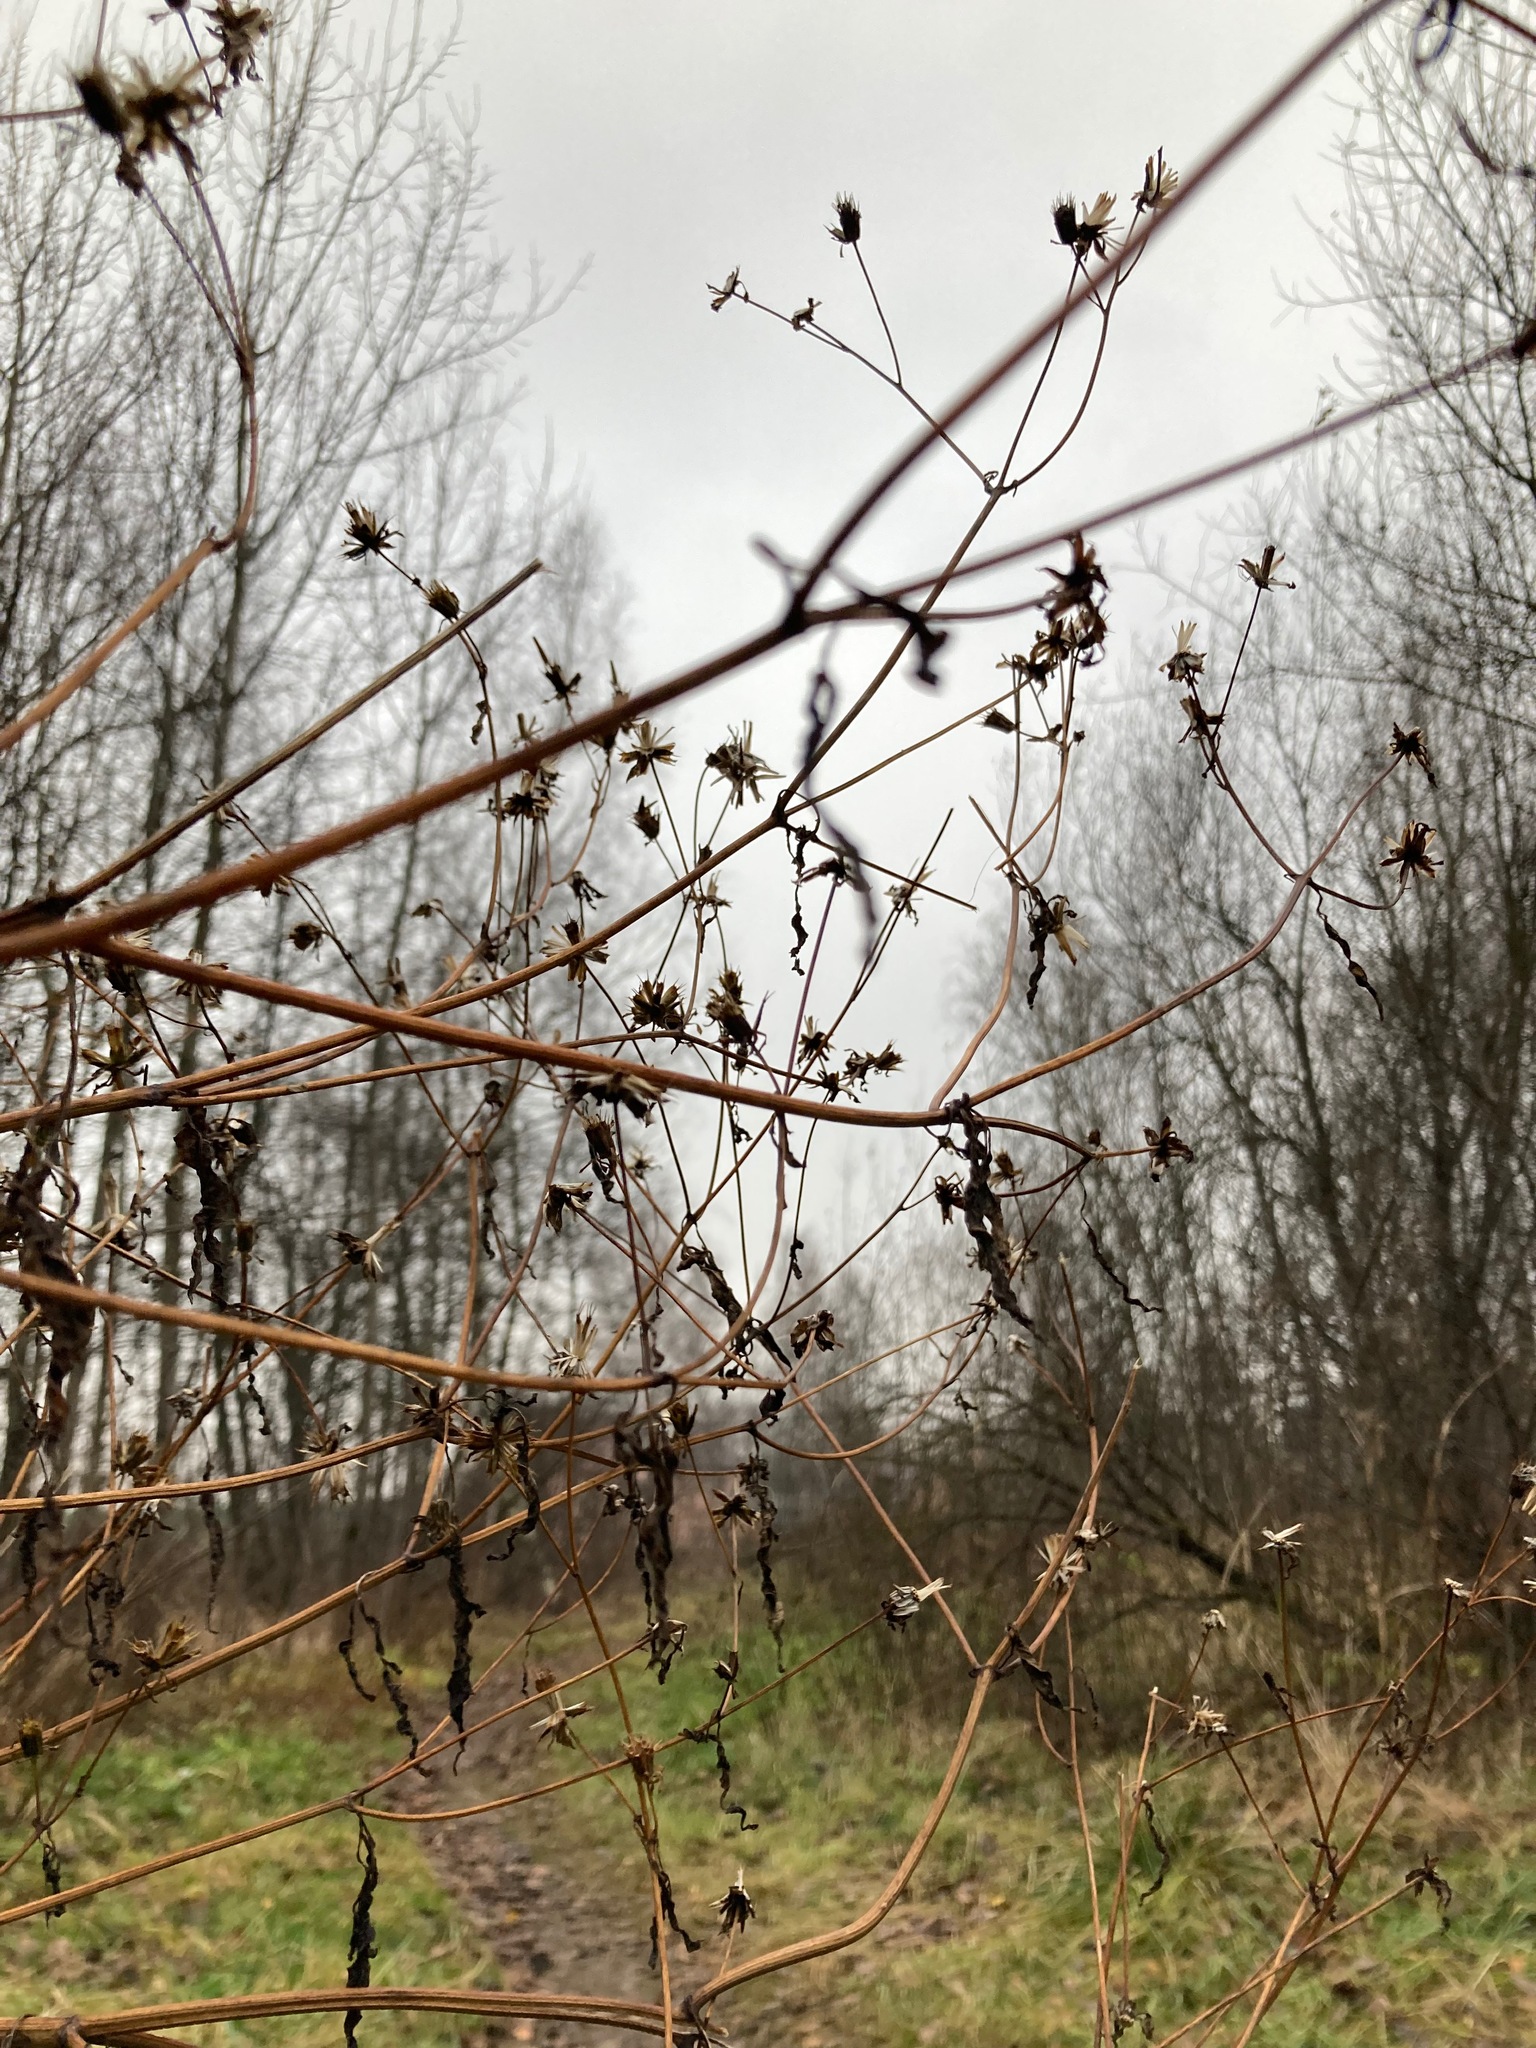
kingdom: Plantae
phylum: Tracheophyta
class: Magnoliopsida
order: Asterales
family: Asteraceae
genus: Bidens
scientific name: Bidens frondosa
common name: Beggarticks
